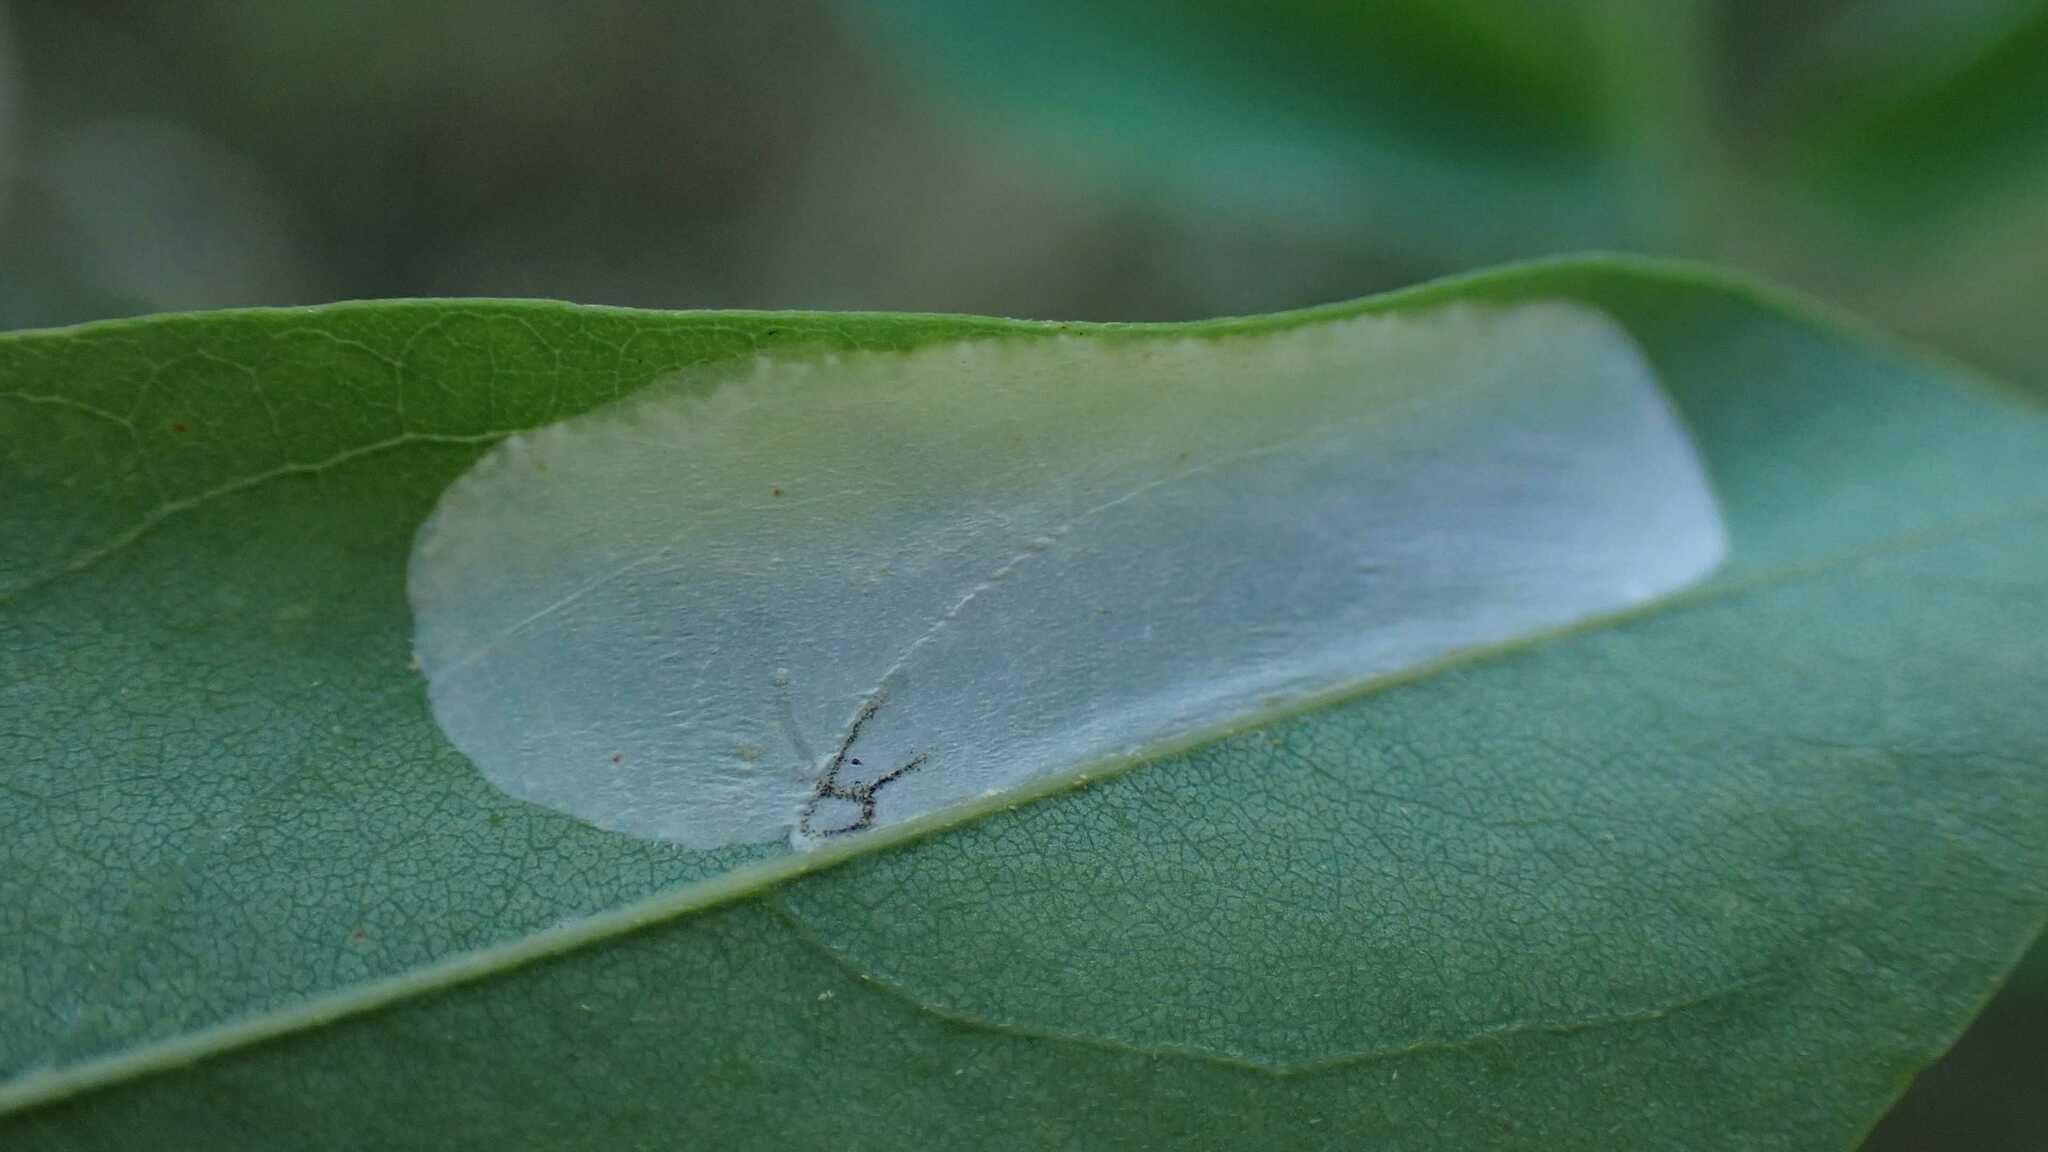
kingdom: Animalia
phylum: Arthropoda
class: Insecta
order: Lepidoptera
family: Gracillariidae
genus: Macrosaccus
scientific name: Macrosaccus robiniella
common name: Leaf blotch miner moth
